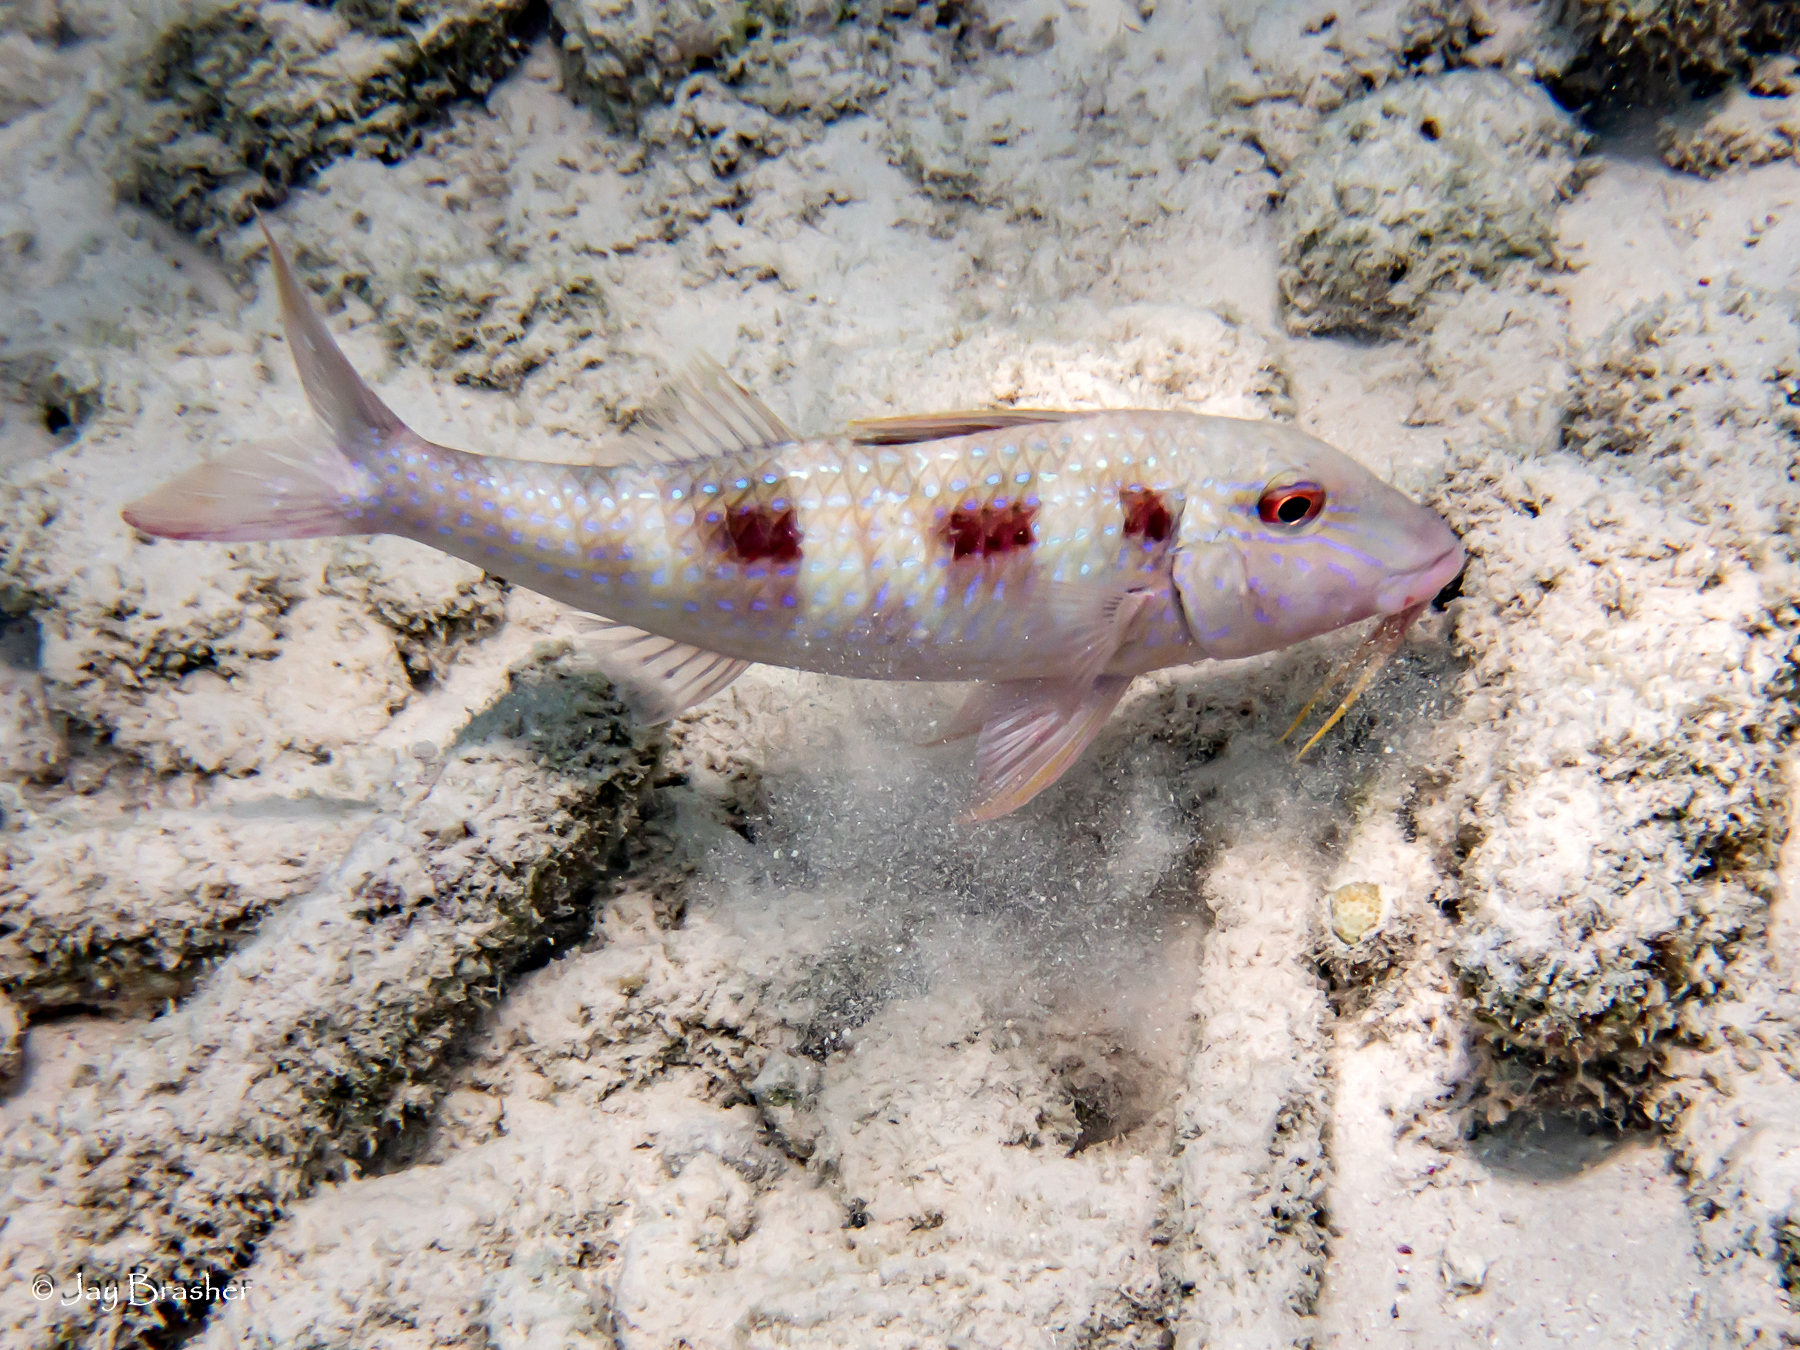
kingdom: Animalia
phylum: Chordata
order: Perciformes
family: Mullidae
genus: Pseudupeneus
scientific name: Pseudupeneus maculatus
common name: Spotted goatfish
